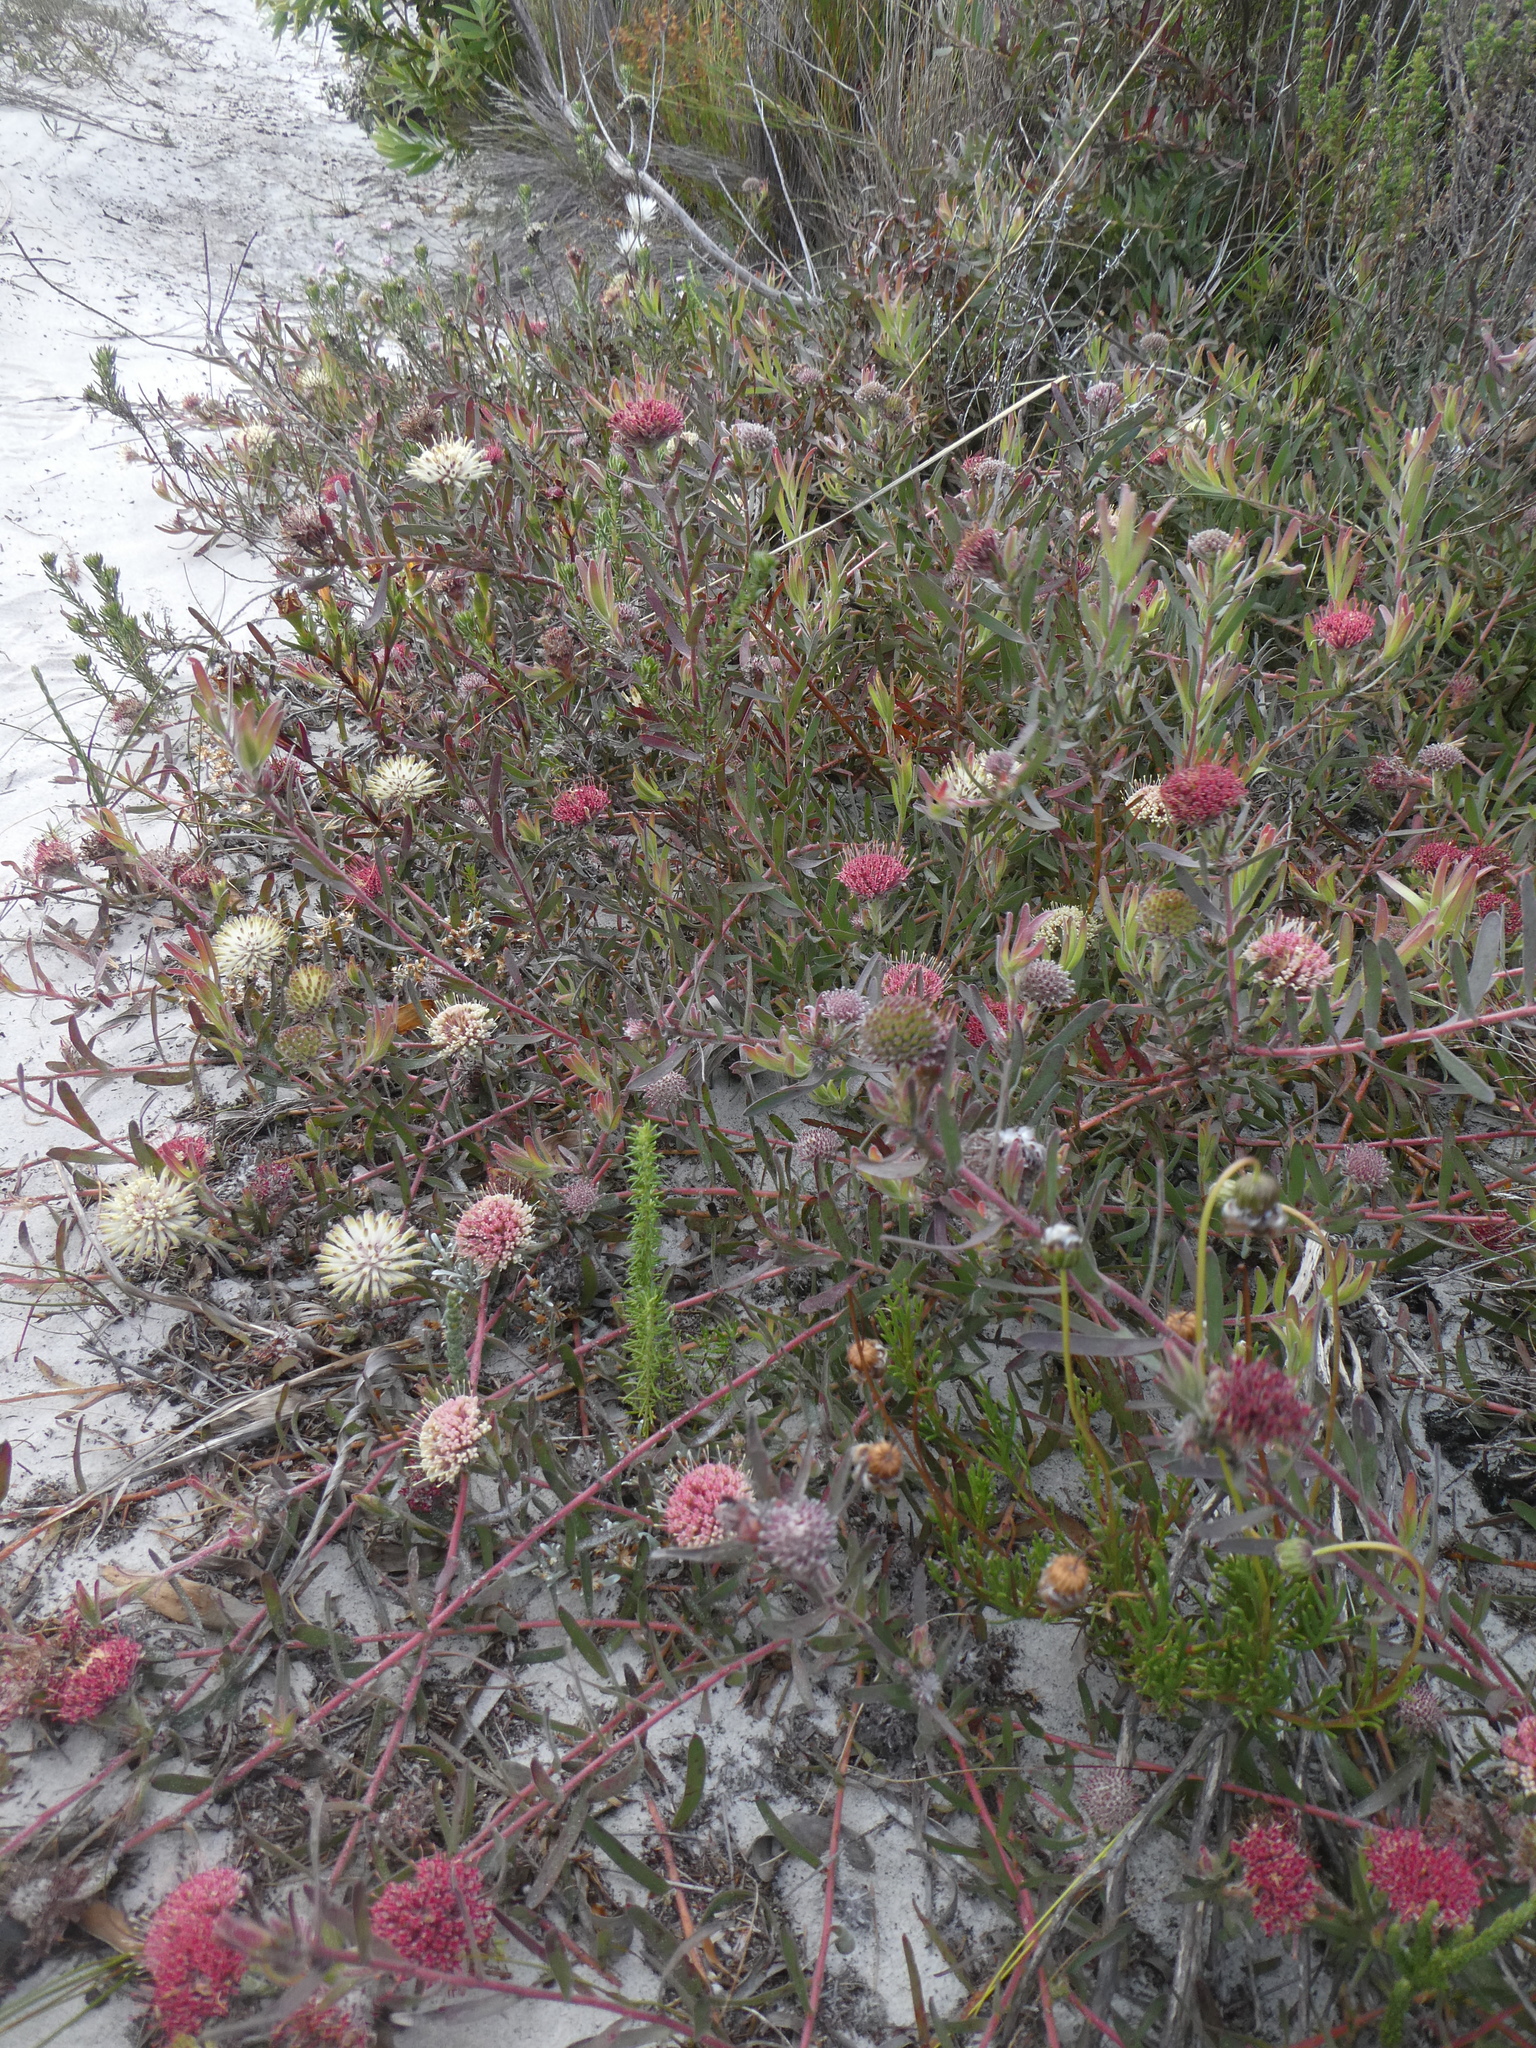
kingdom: Plantae
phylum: Tracheophyta
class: Magnoliopsida
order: Proteales
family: Proteaceae
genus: Leucospermum
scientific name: Leucospermum pedunculatum
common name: White-trailing pincushion
